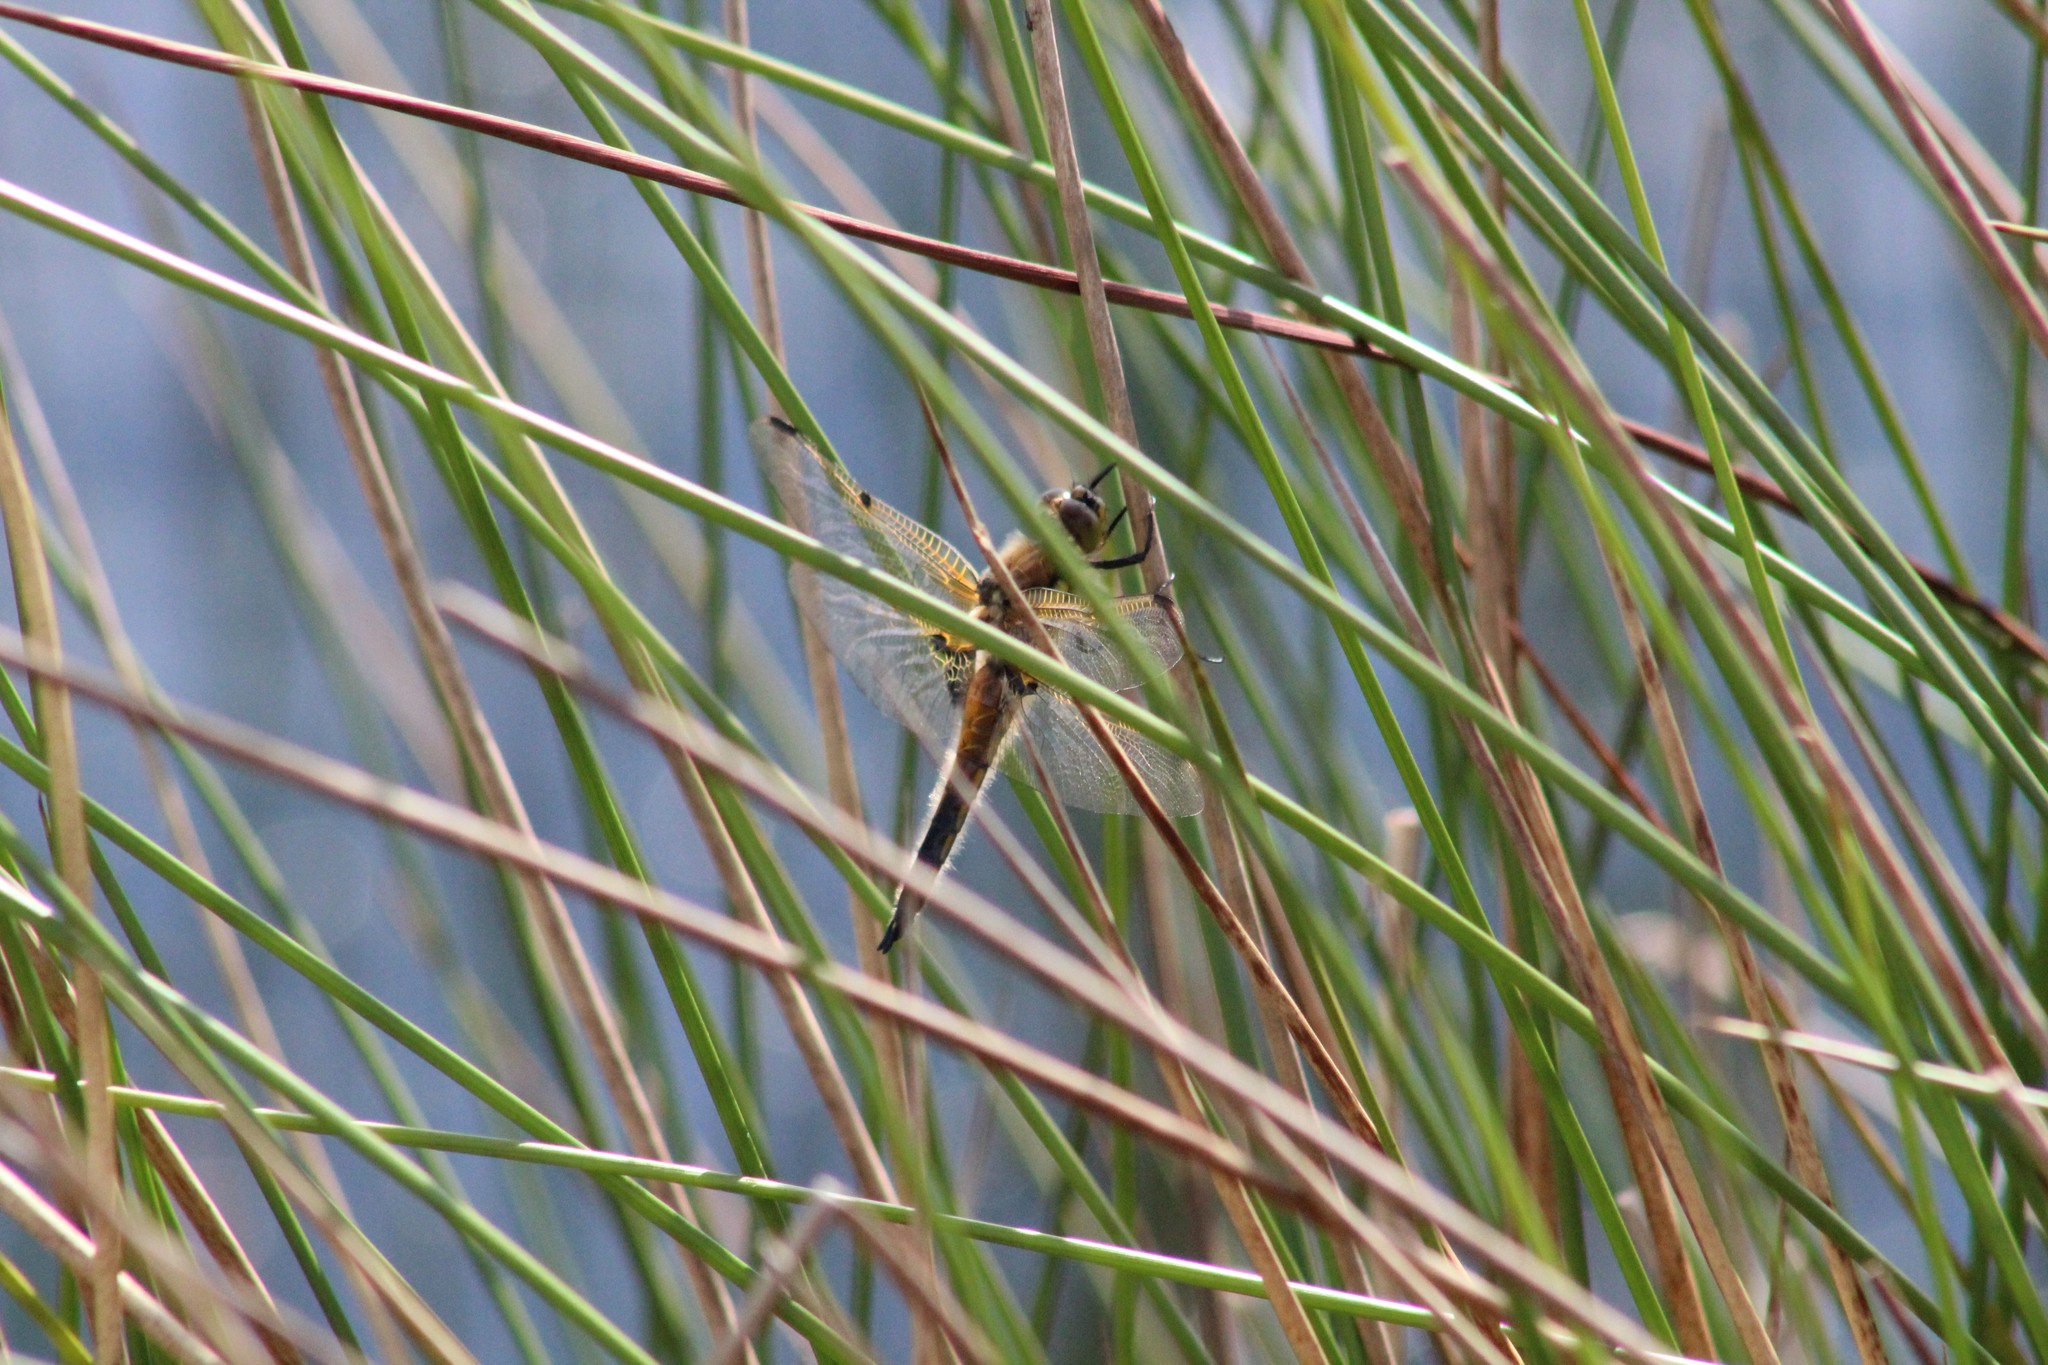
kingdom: Animalia
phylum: Arthropoda
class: Insecta
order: Odonata
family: Libellulidae
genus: Libellula
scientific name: Libellula quadrimaculata
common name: Four-spotted chaser
